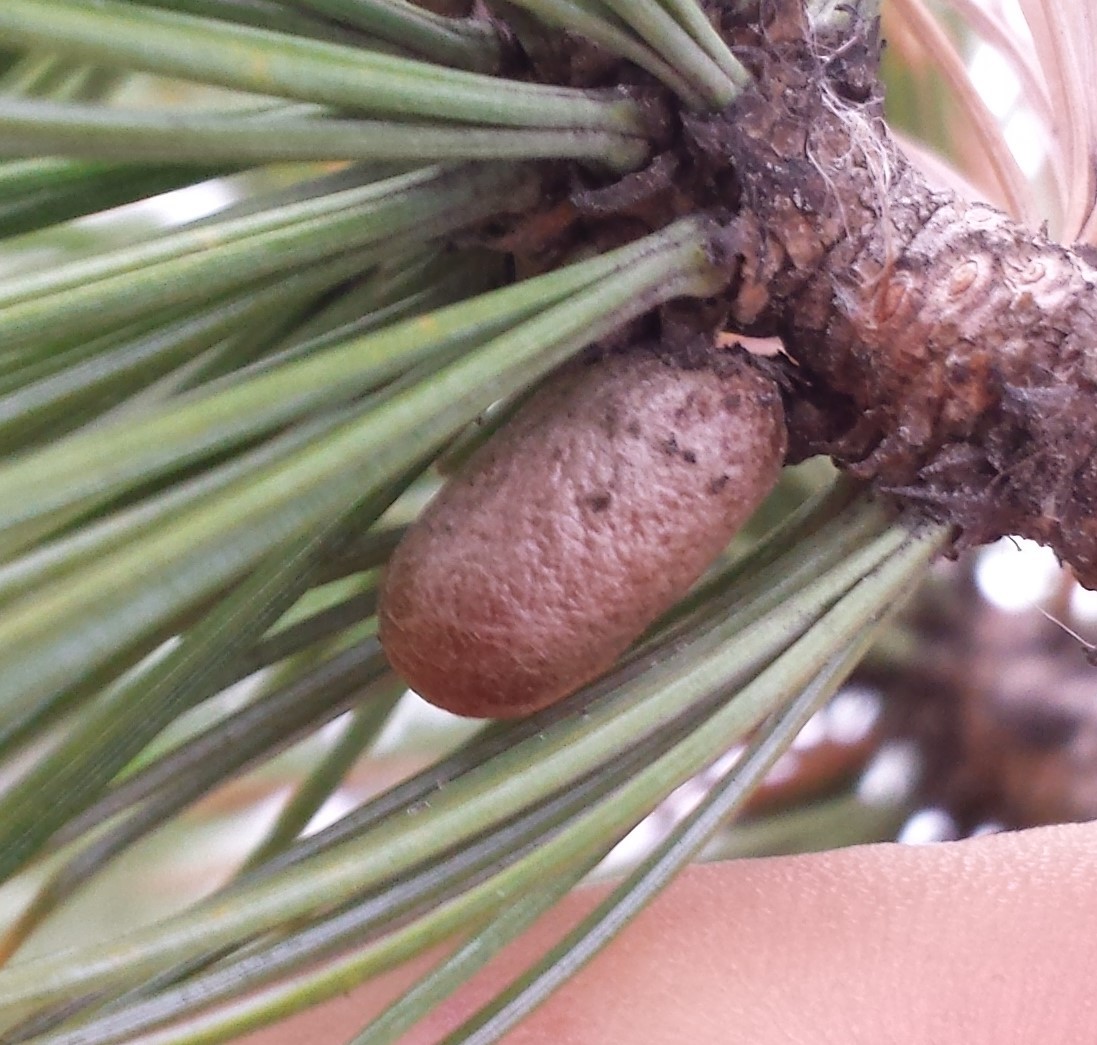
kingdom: Animalia
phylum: Arthropoda
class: Insecta
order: Hymenoptera
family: Diprionidae
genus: Diprion
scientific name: Diprion similis
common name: Pine sawfly
